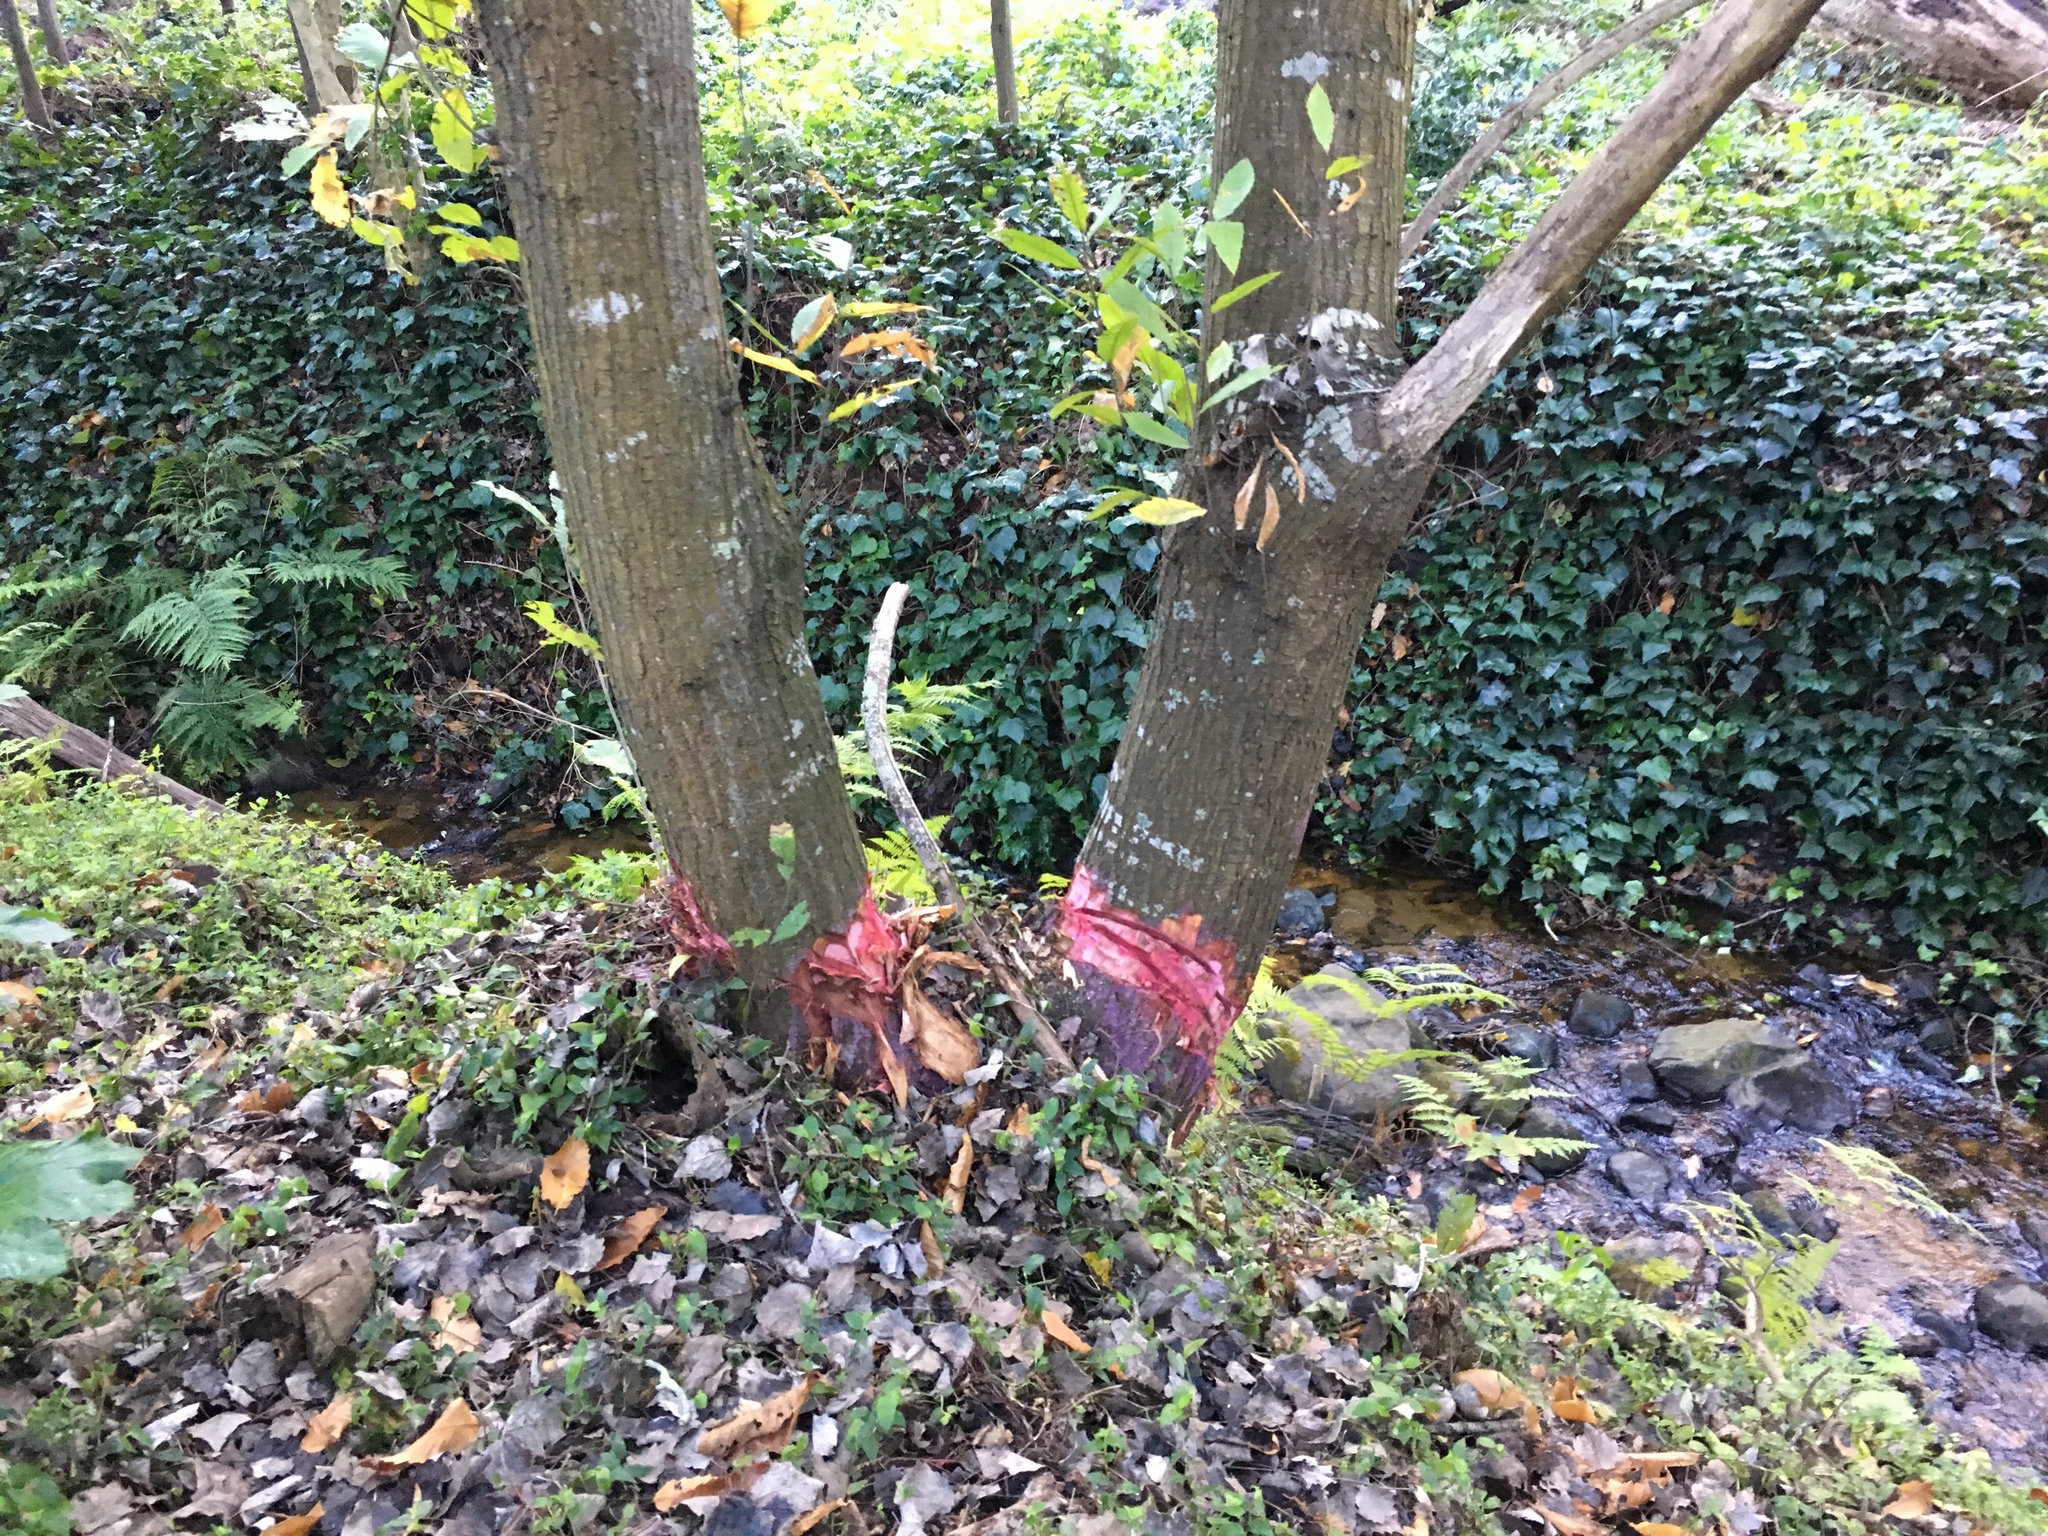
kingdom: Plantae
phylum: Tracheophyta
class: Magnoliopsida
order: Fagales
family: Fagaceae
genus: Castanea
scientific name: Castanea sativa
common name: Sweet chestnut
